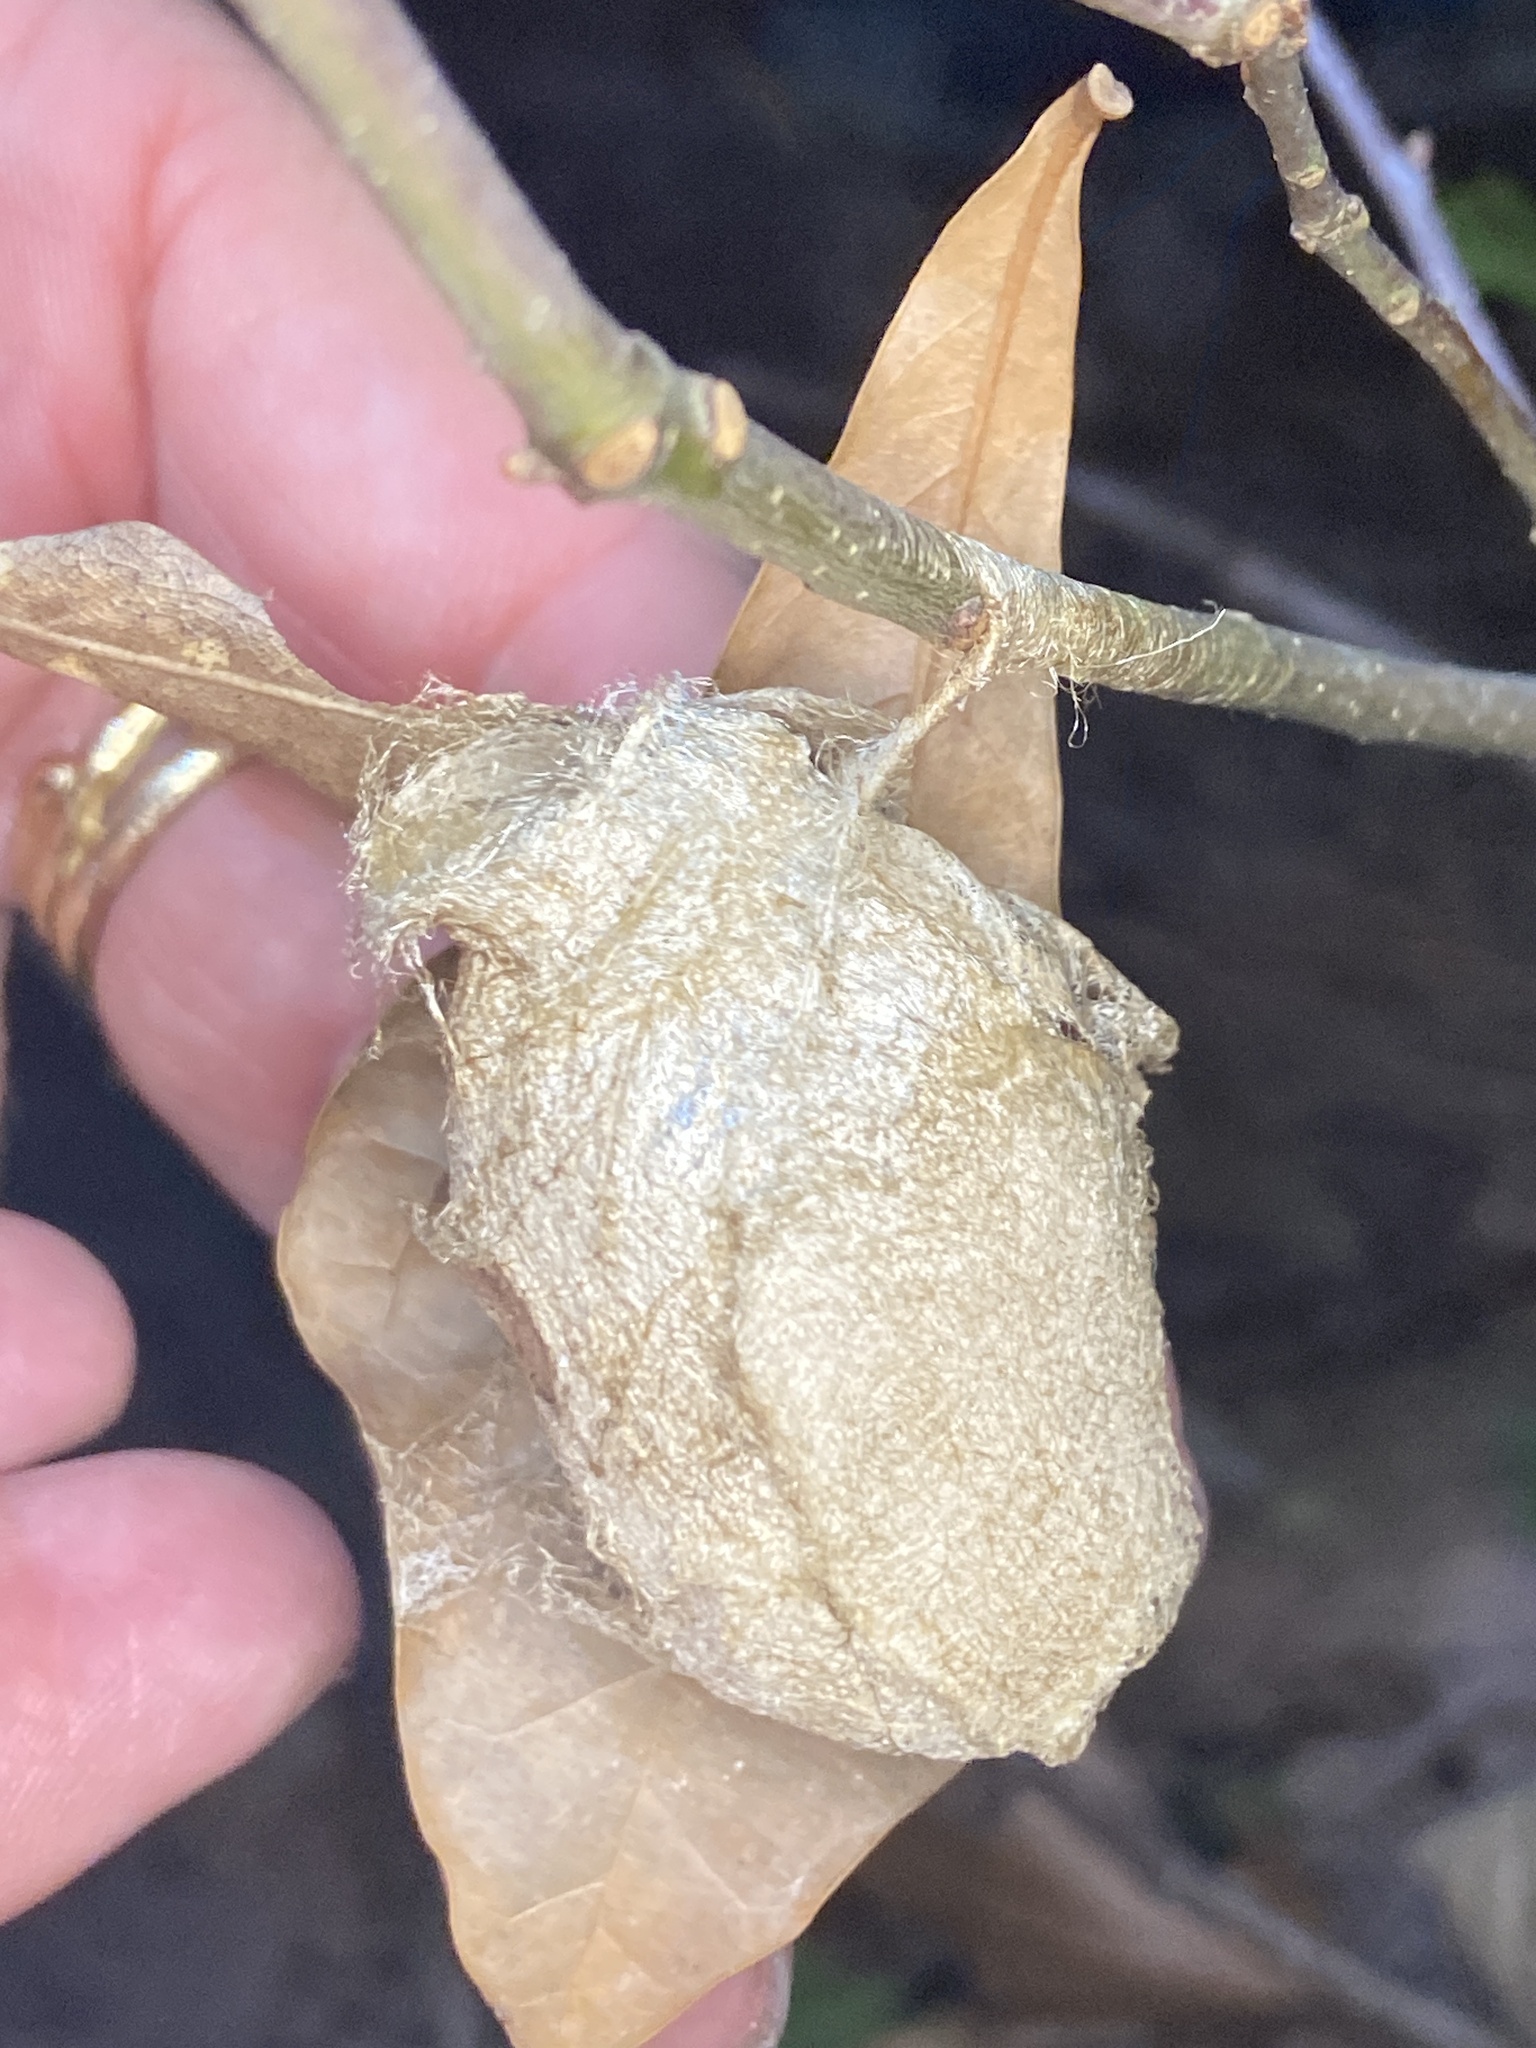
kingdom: Animalia
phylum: Arthropoda
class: Insecta
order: Lepidoptera
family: Saturniidae
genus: Antheraea
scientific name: Antheraea polyphemus
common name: Polyphemus moth
